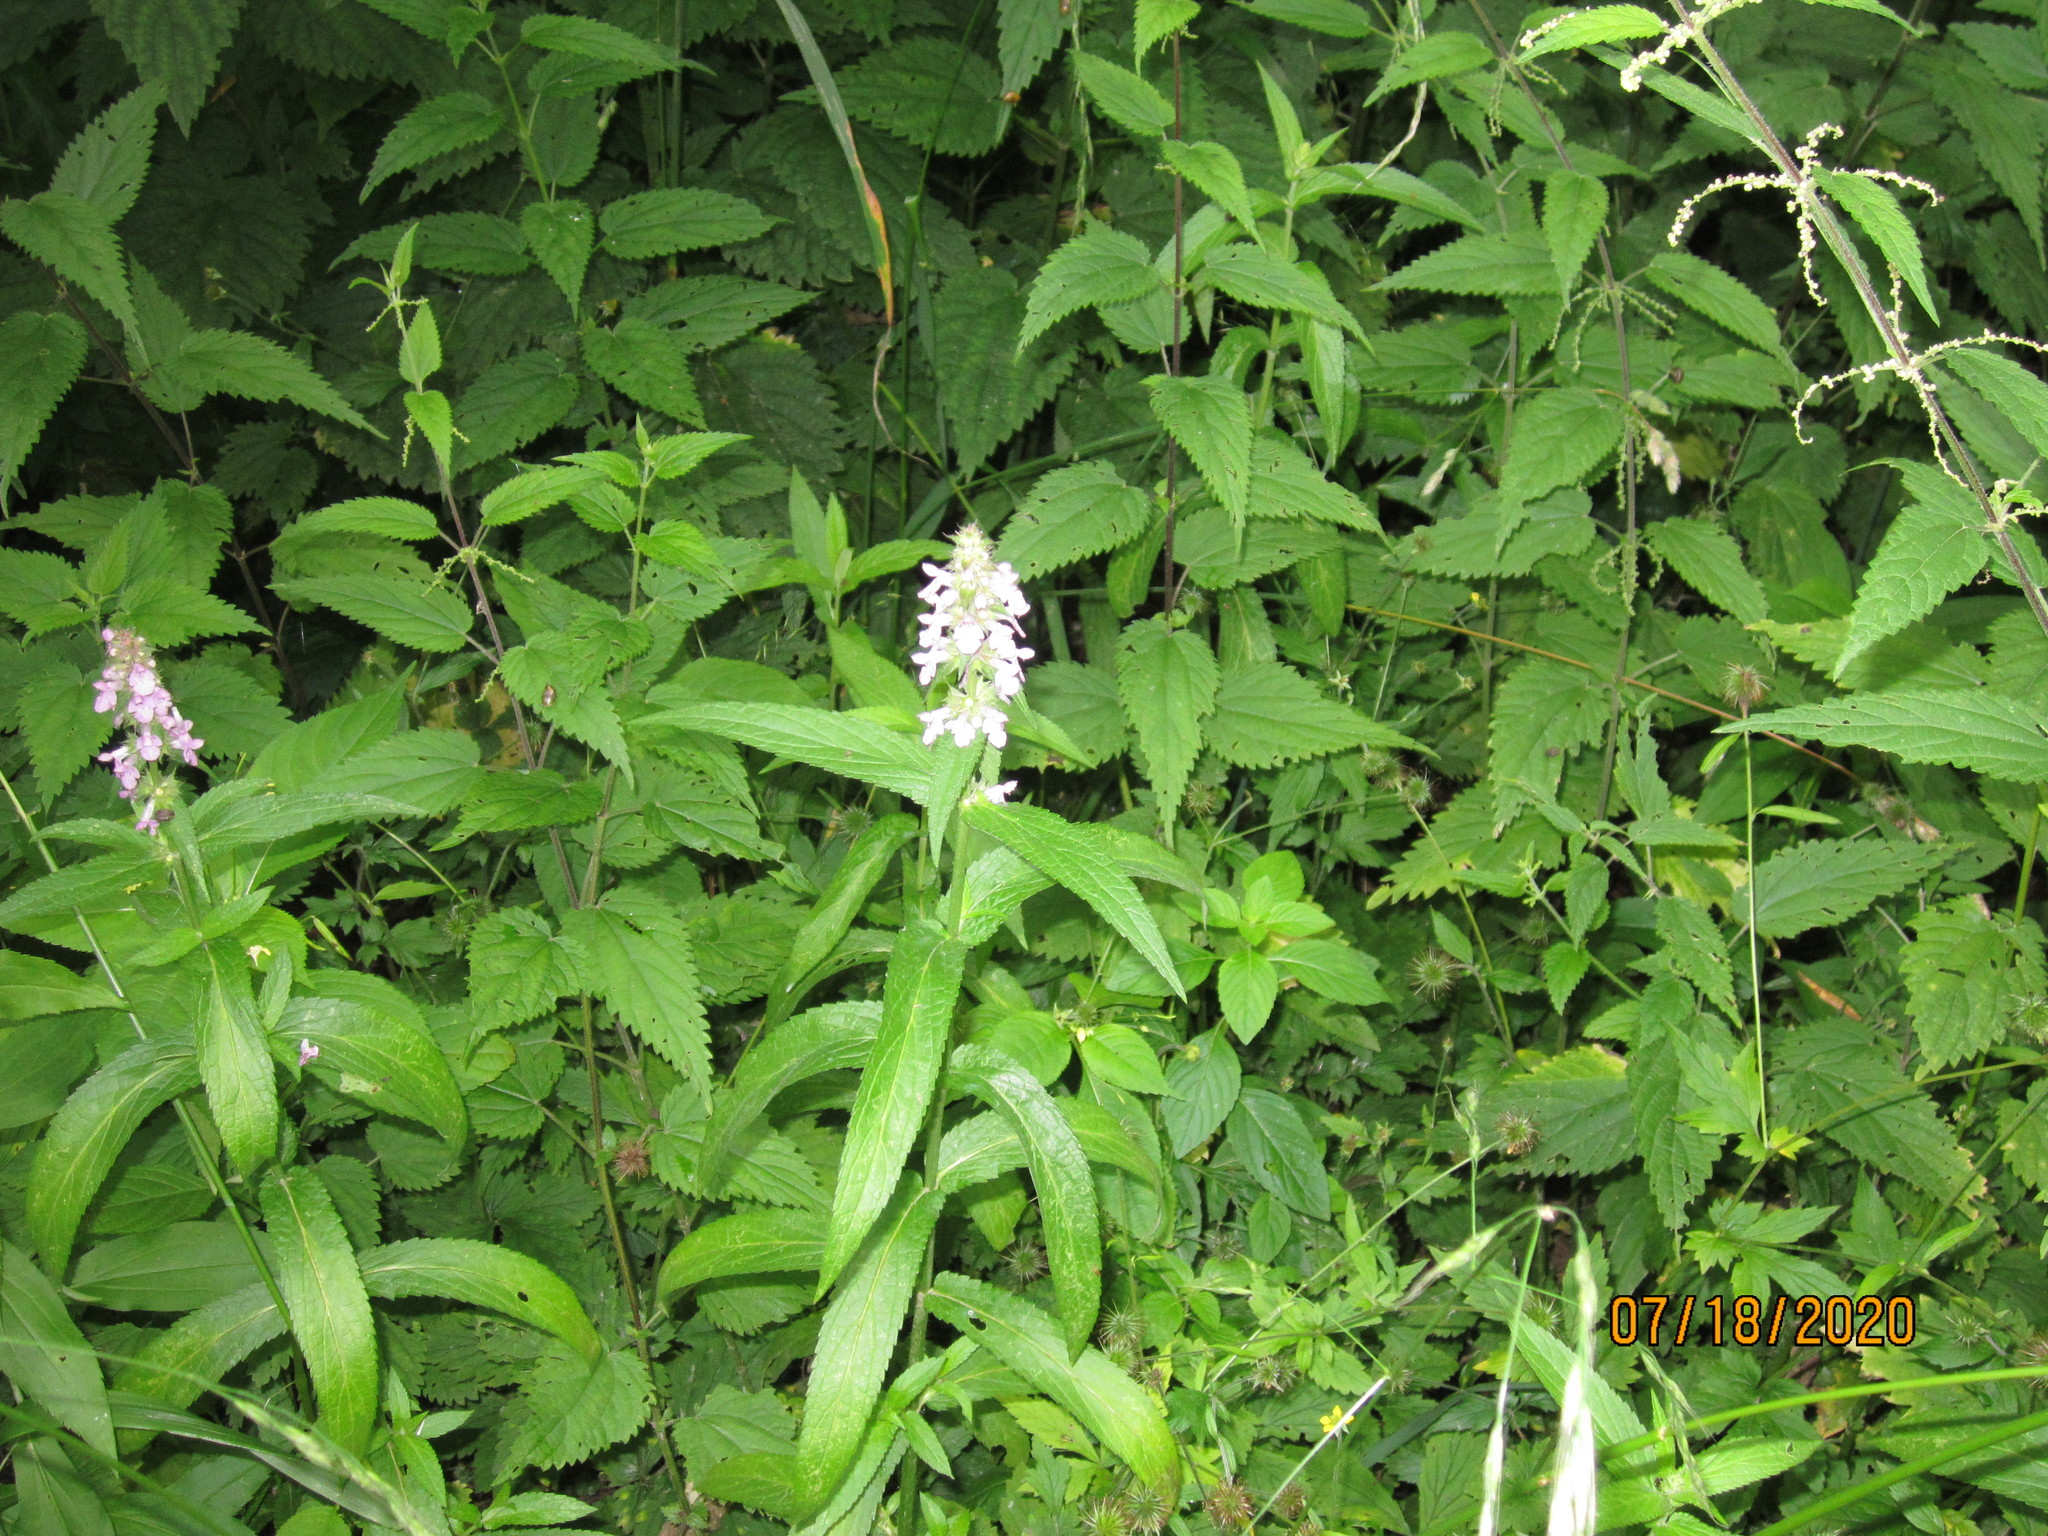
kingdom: Plantae
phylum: Tracheophyta
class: Magnoliopsida
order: Lamiales
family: Lamiaceae
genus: Stachys
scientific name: Stachys palustris
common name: Marsh woundwort
